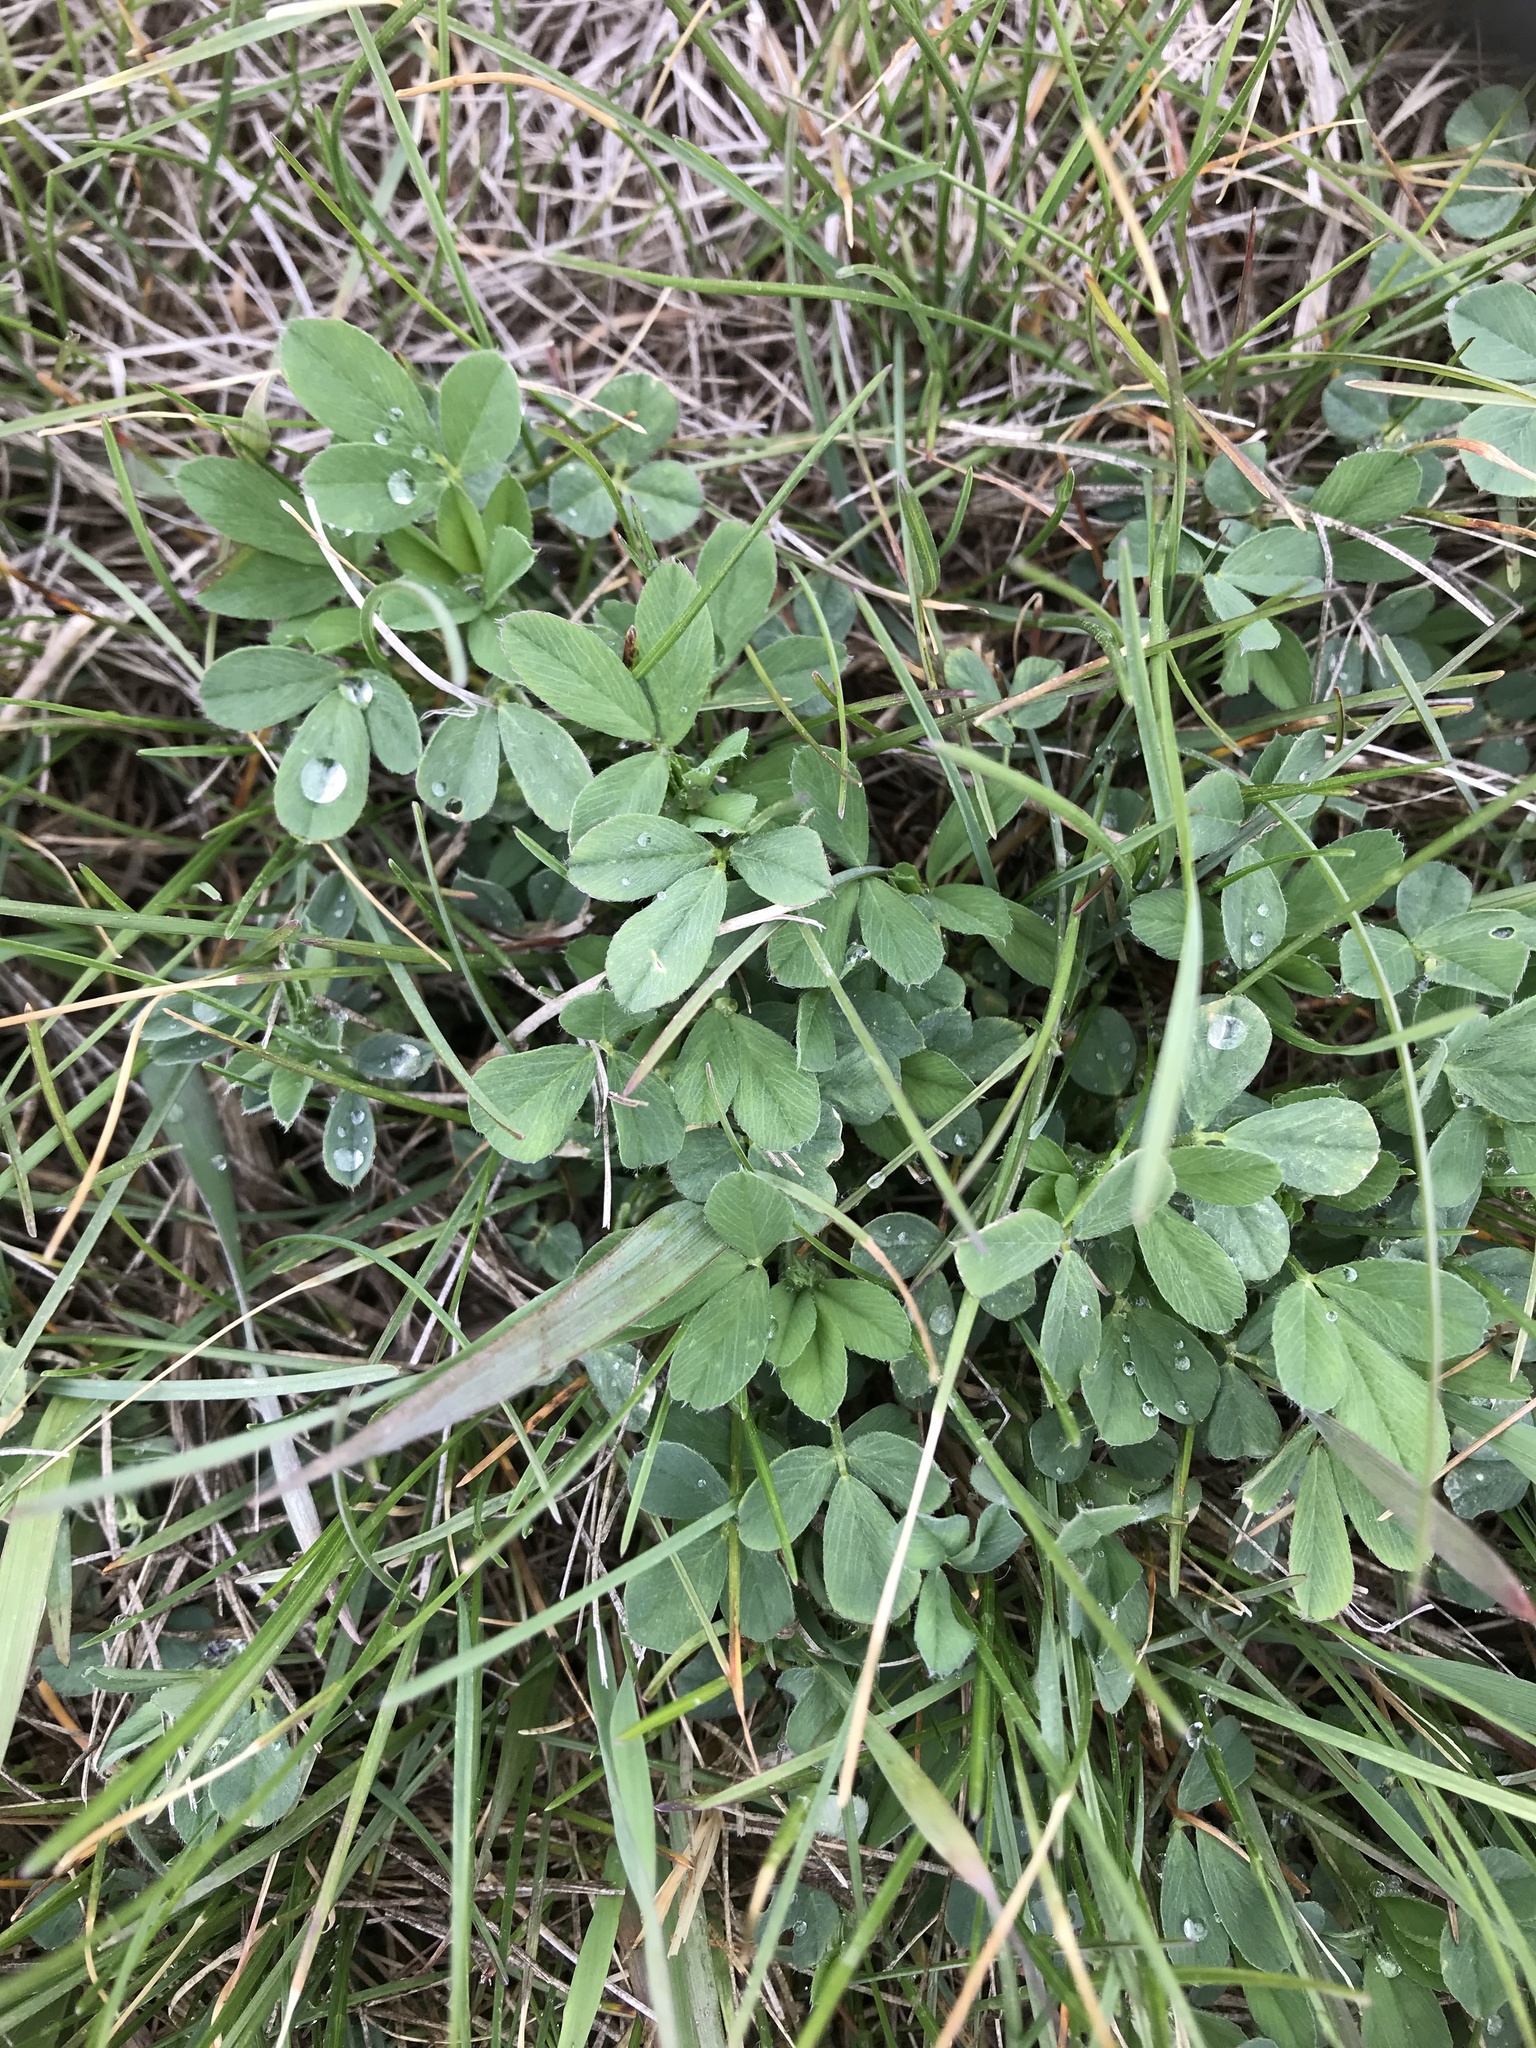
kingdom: Plantae
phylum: Tracheophyta
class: Magnoliopsida
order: Fabales
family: Fabaceae
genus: Medicago
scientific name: Medicago sativa
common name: Alfalfa
